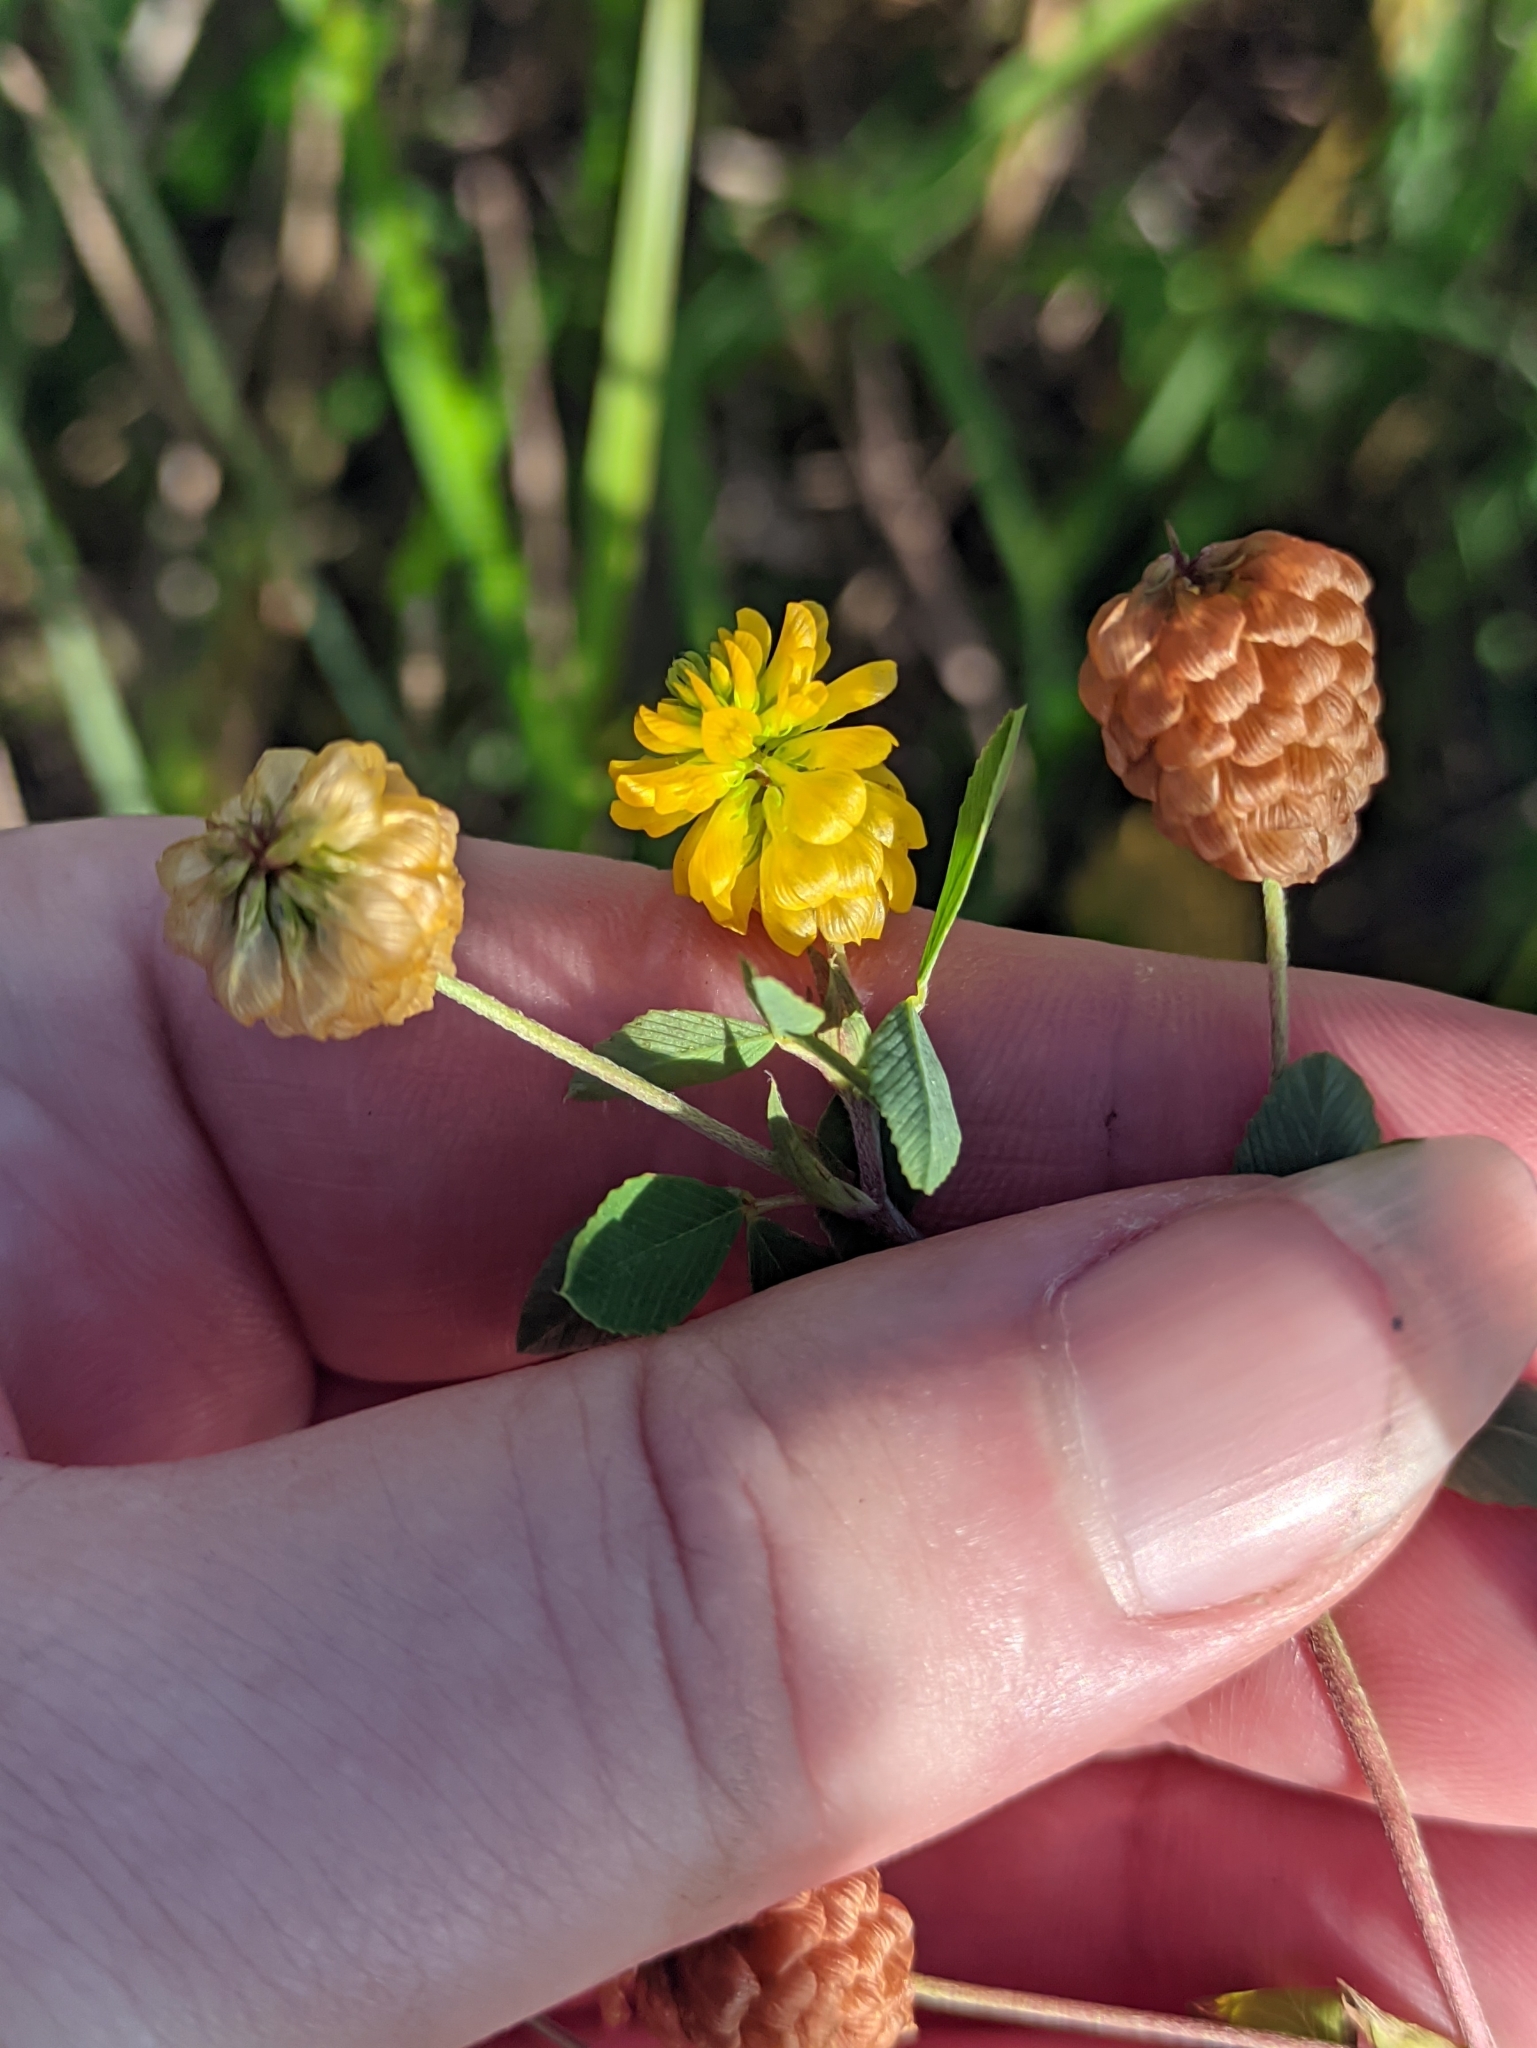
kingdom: Plantae
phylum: Tracheophyta
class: Magnoliopsida
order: Fabales
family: Fabaceae
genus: Trifolium
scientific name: Trifolium aureum
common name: Golden clover
